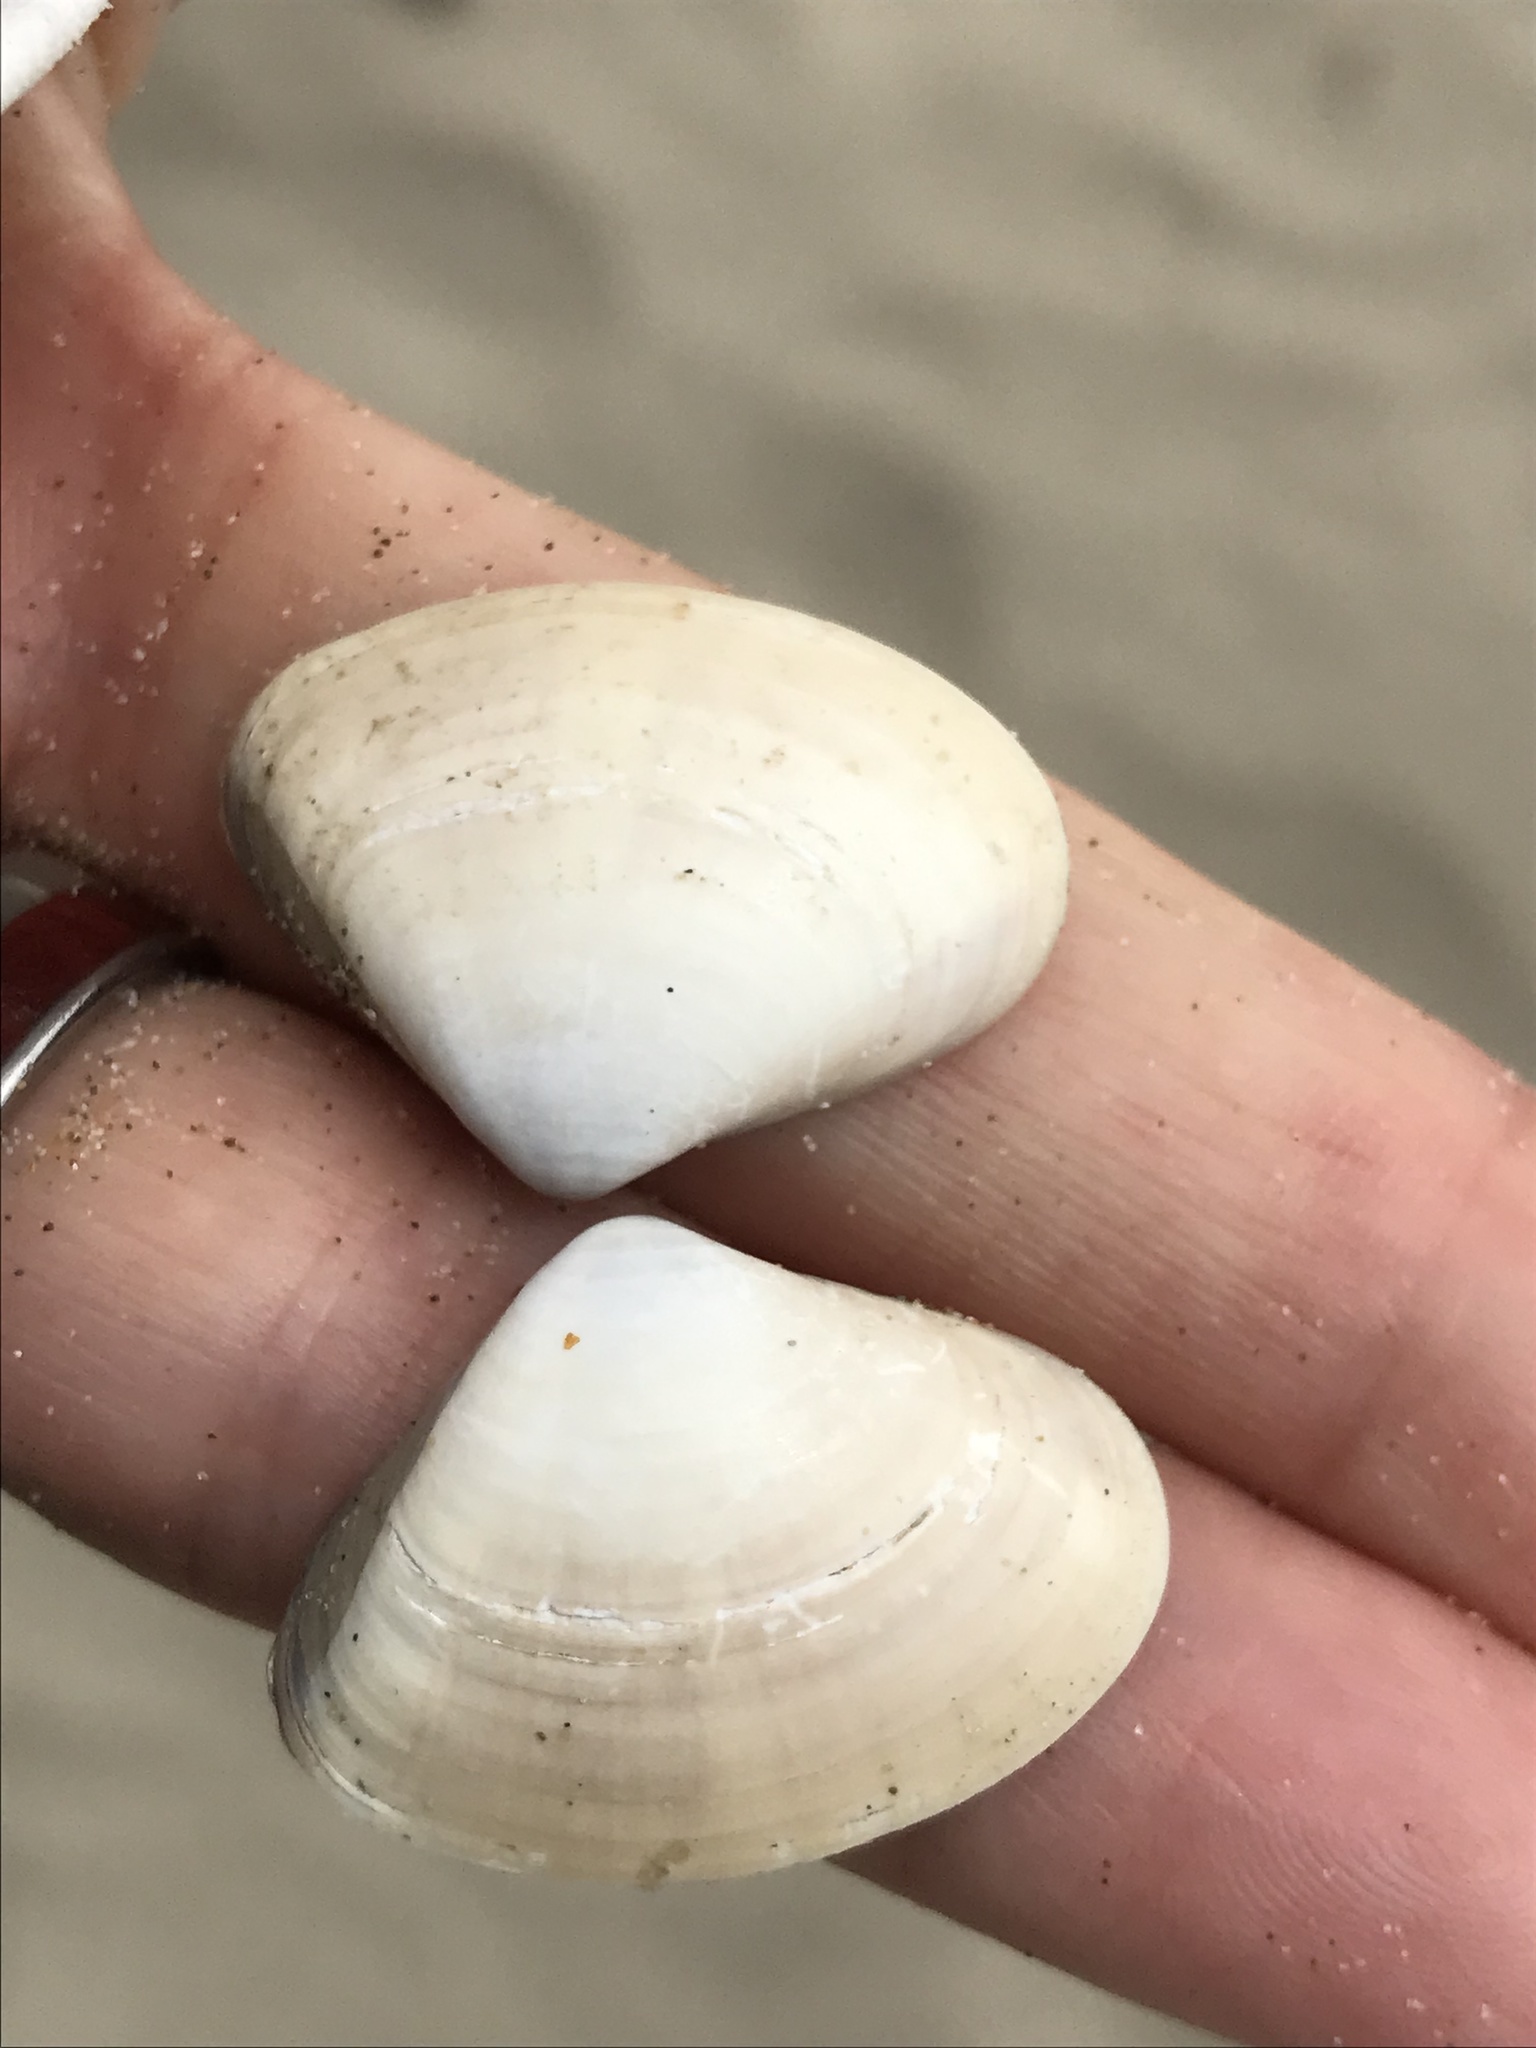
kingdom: Animalia
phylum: Mollusca
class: Bivalvia
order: Venerida
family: Veneridae
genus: Tivela
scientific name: Tivela stultorum
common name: Pismo clam
